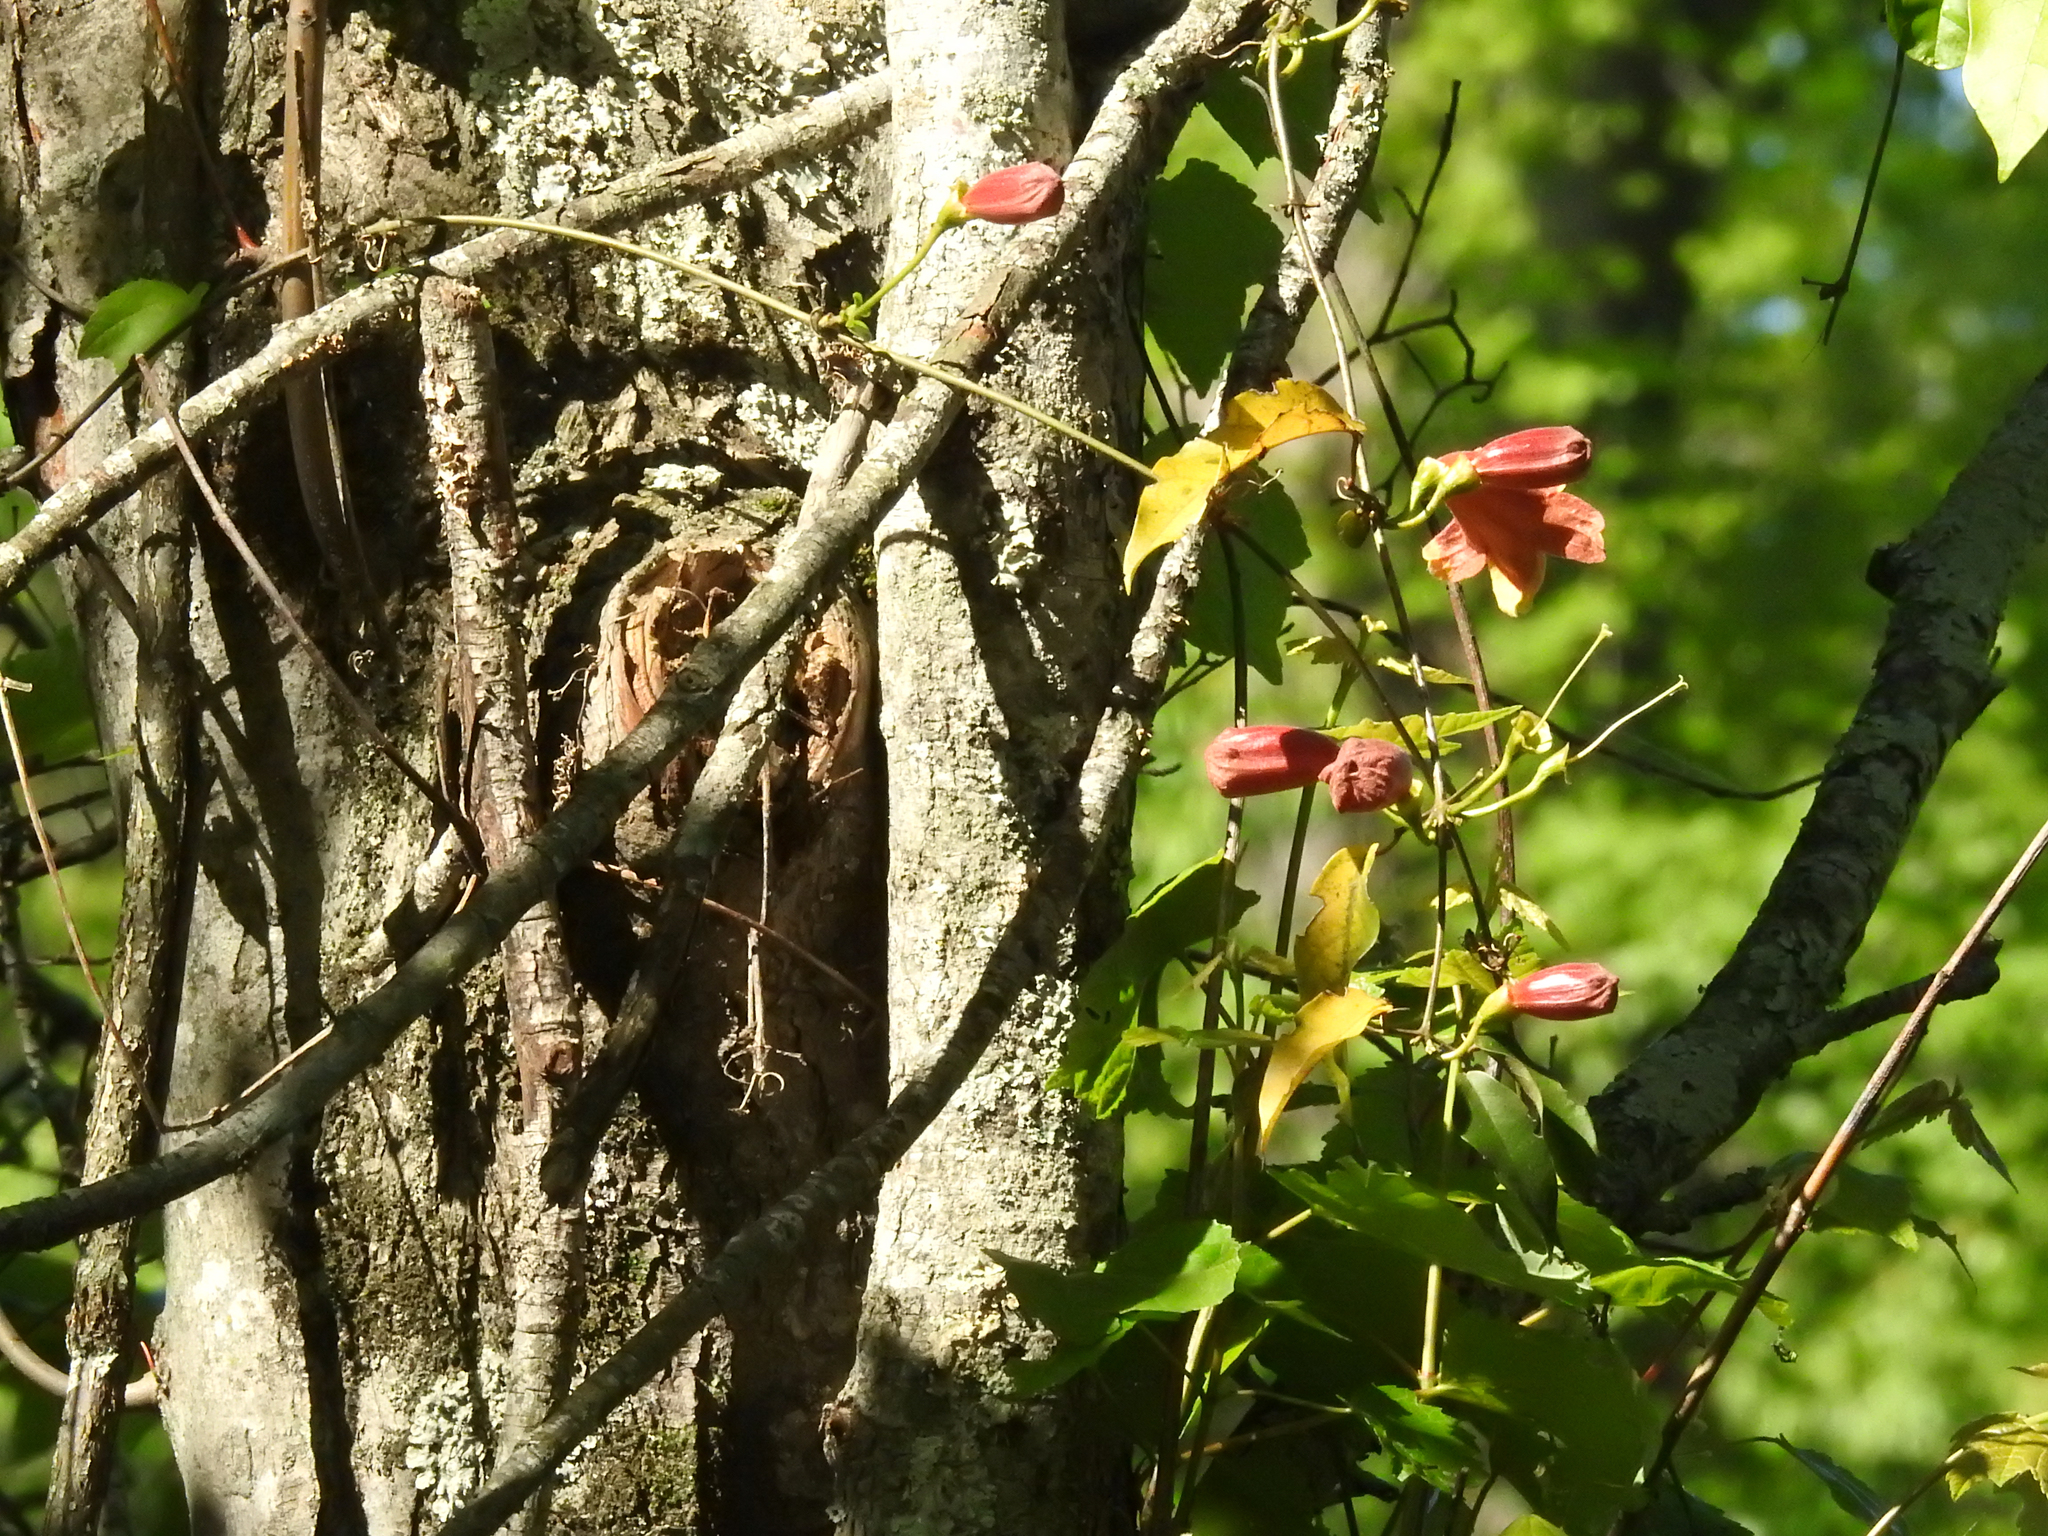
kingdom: Plantae
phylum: Tracheophyta
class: Magnoliopsida
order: Lamiales
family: Bignoniaceae
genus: Bignonia
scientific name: Bignonia capreolata
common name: Crossvine
